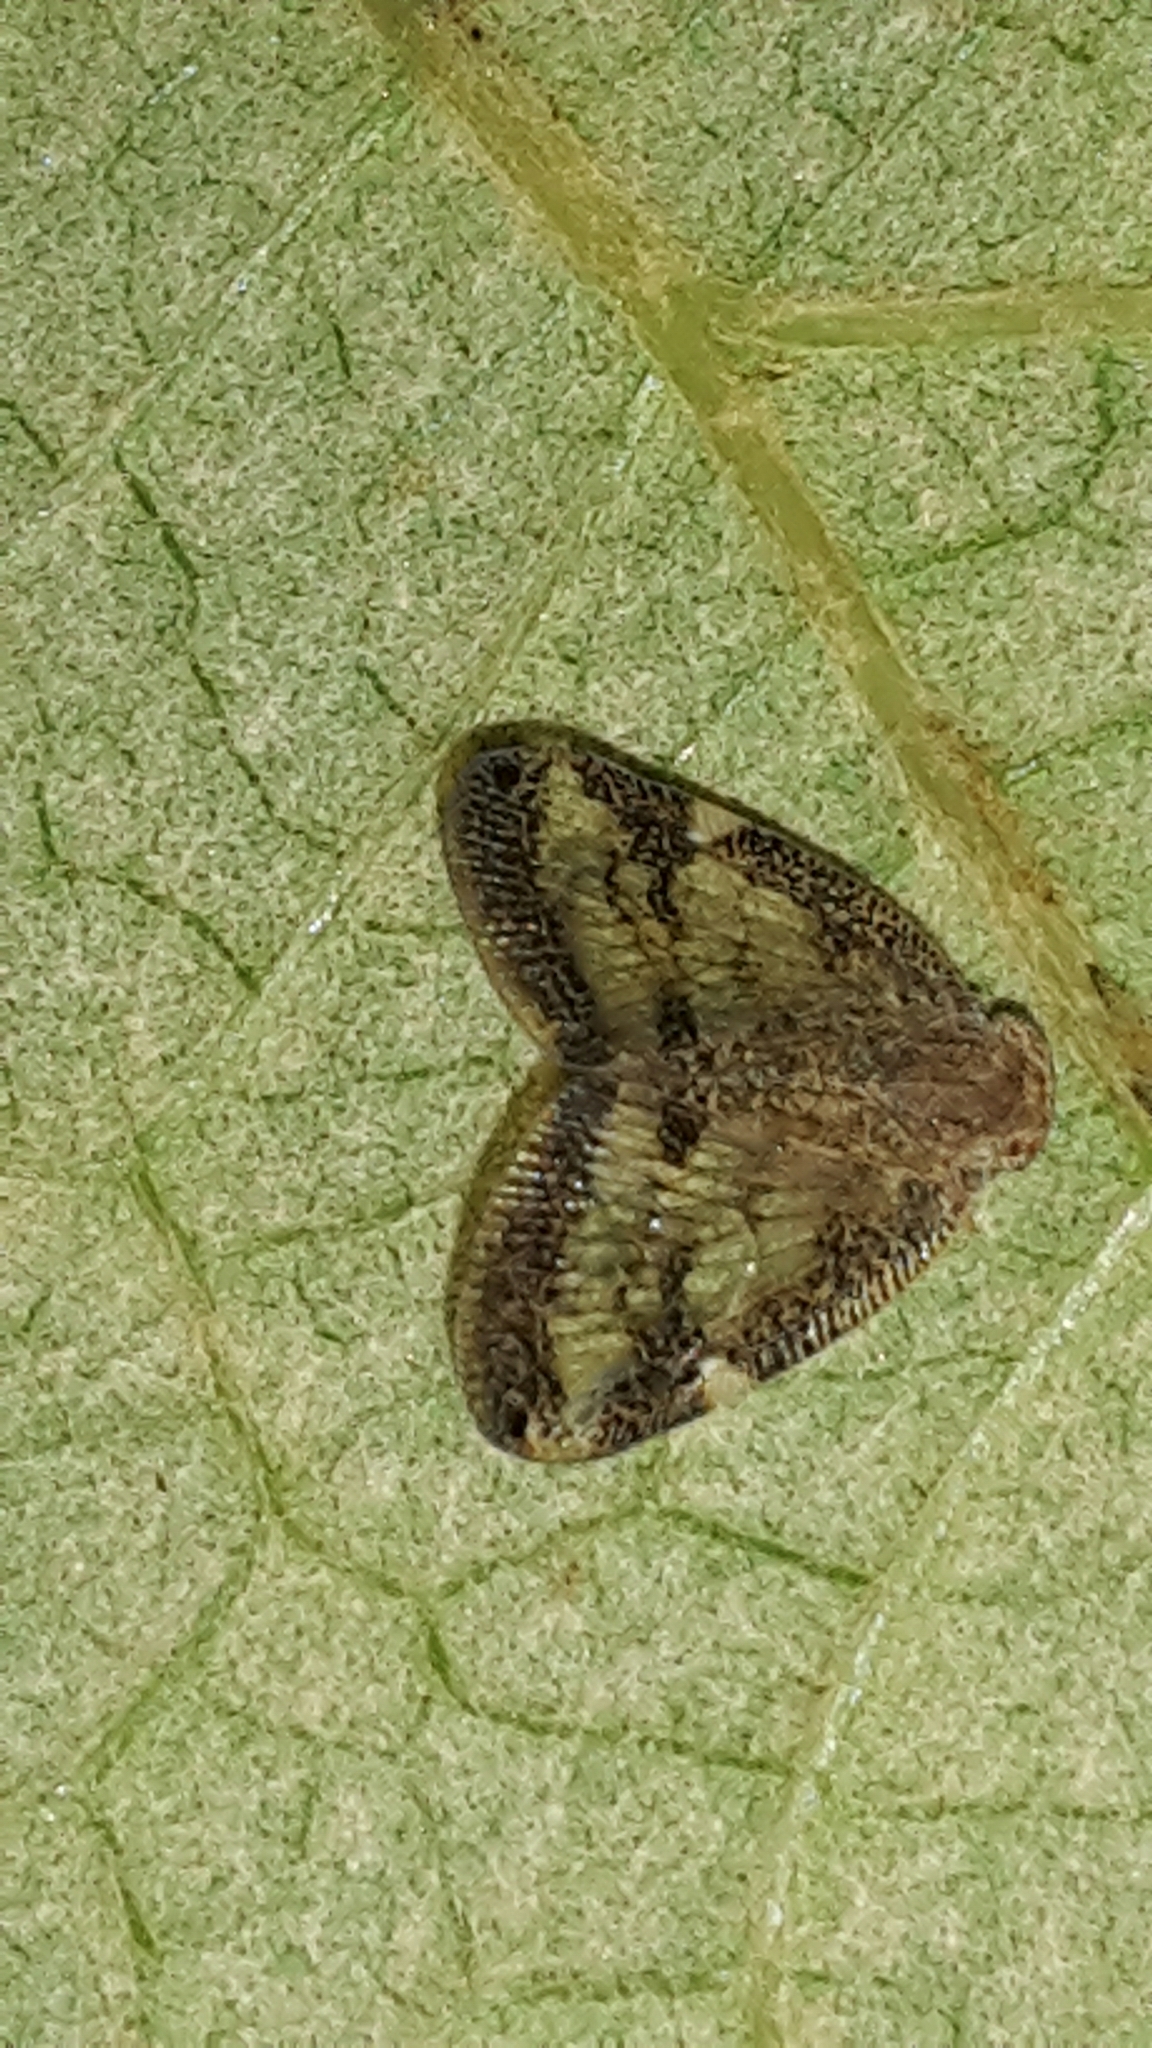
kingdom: Animalia
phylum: Arthropoda
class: Insecta
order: Hemiptera
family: Ricaniidae
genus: Scolypopa
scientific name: Scolypopa australis
